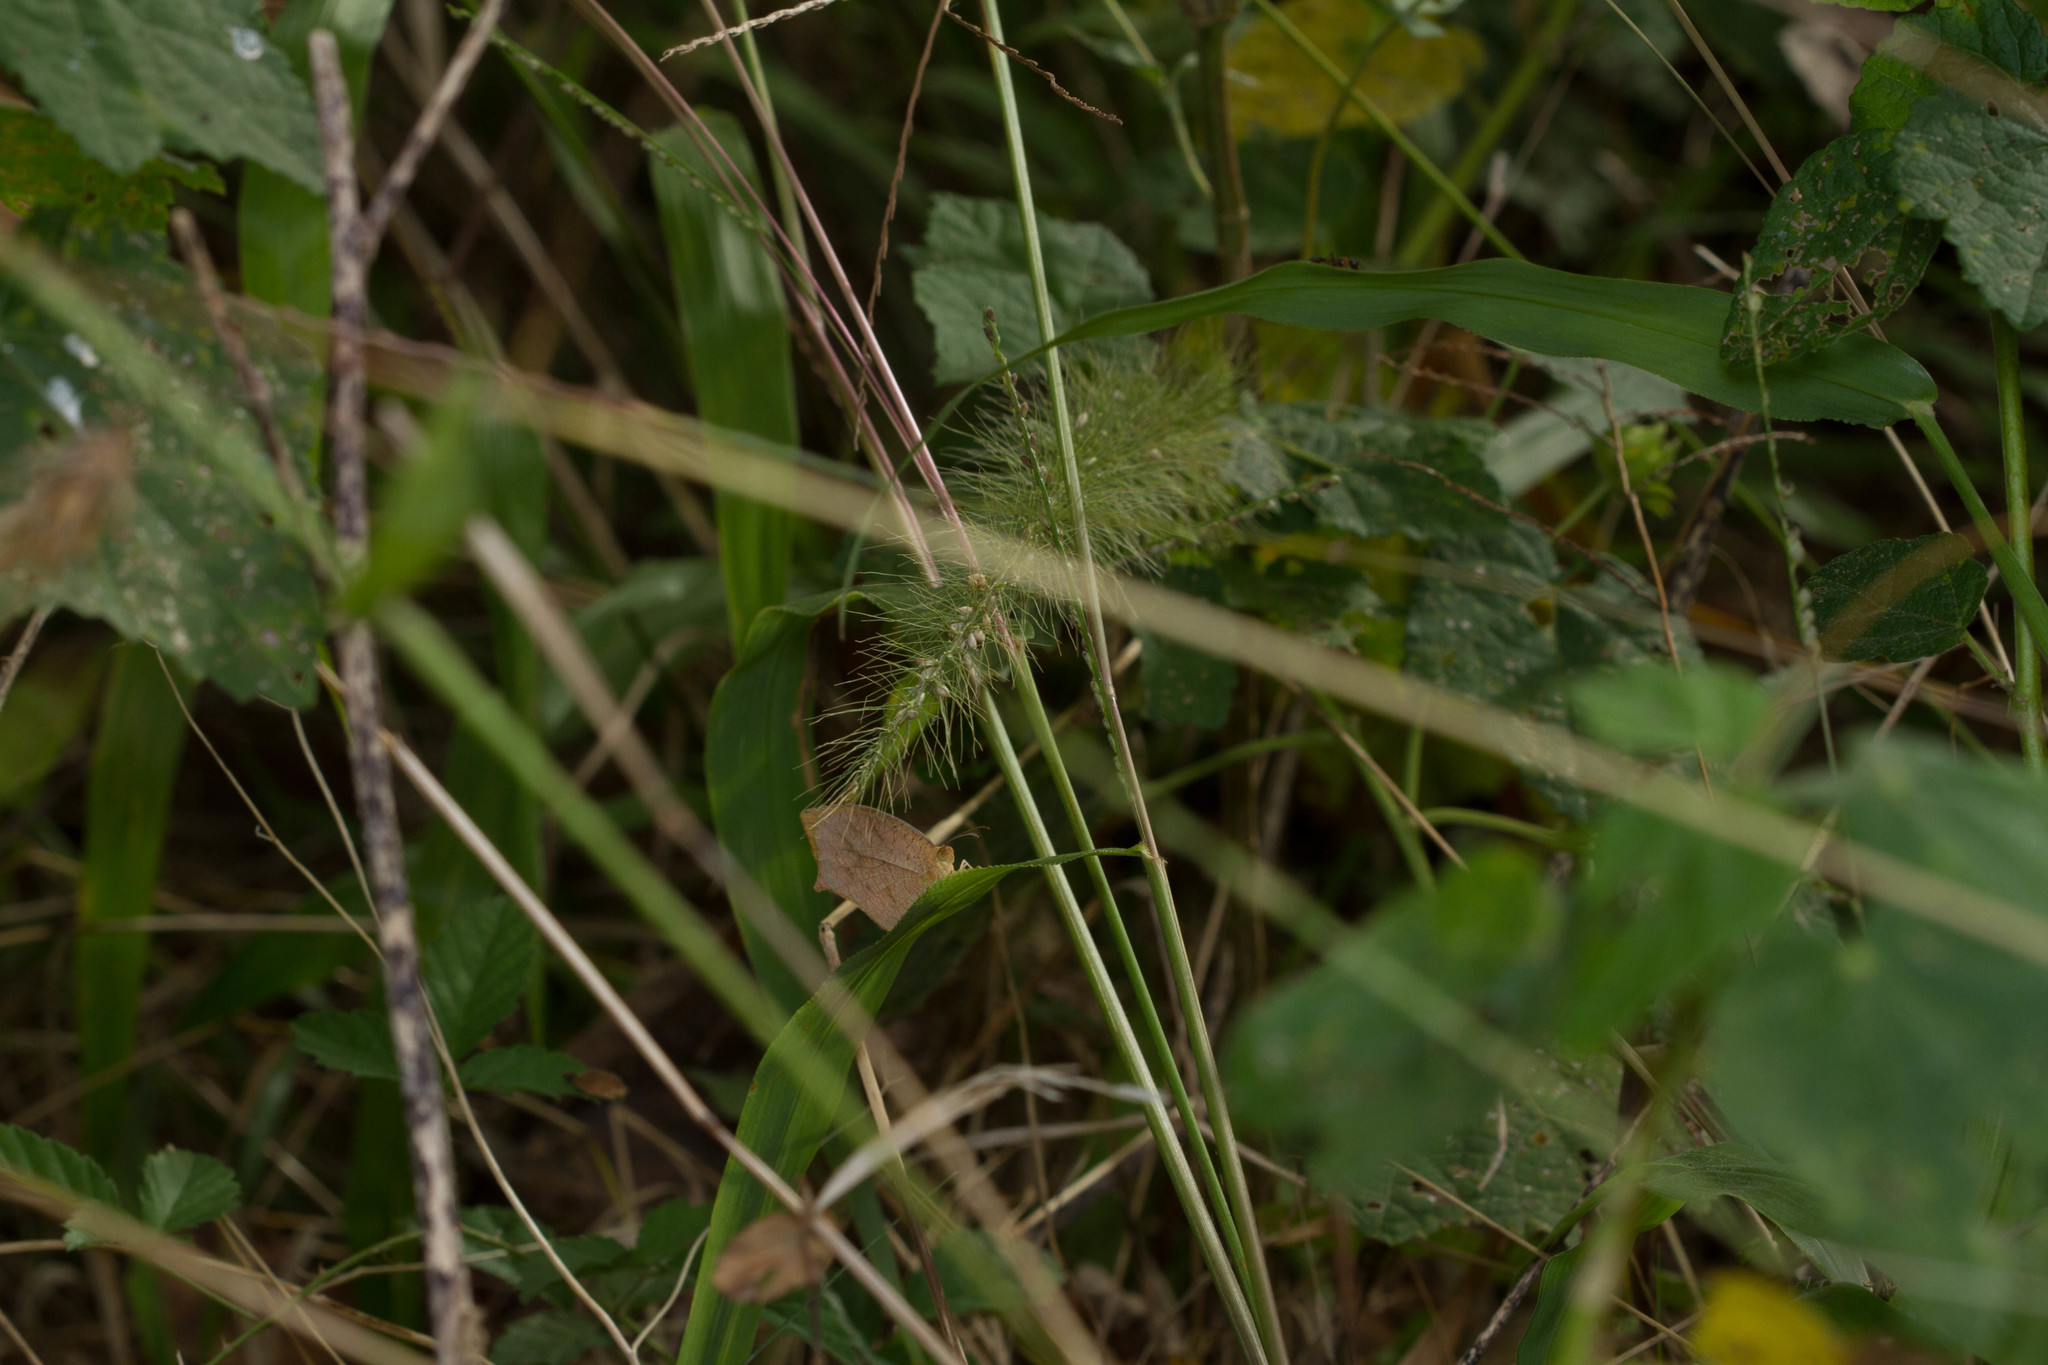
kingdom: Animalia
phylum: Arthropoda
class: Insecta
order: Lepidoptera
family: Pieridae
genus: Pyrisitia
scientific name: Pyrisitia proterpia
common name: Tailed orange
